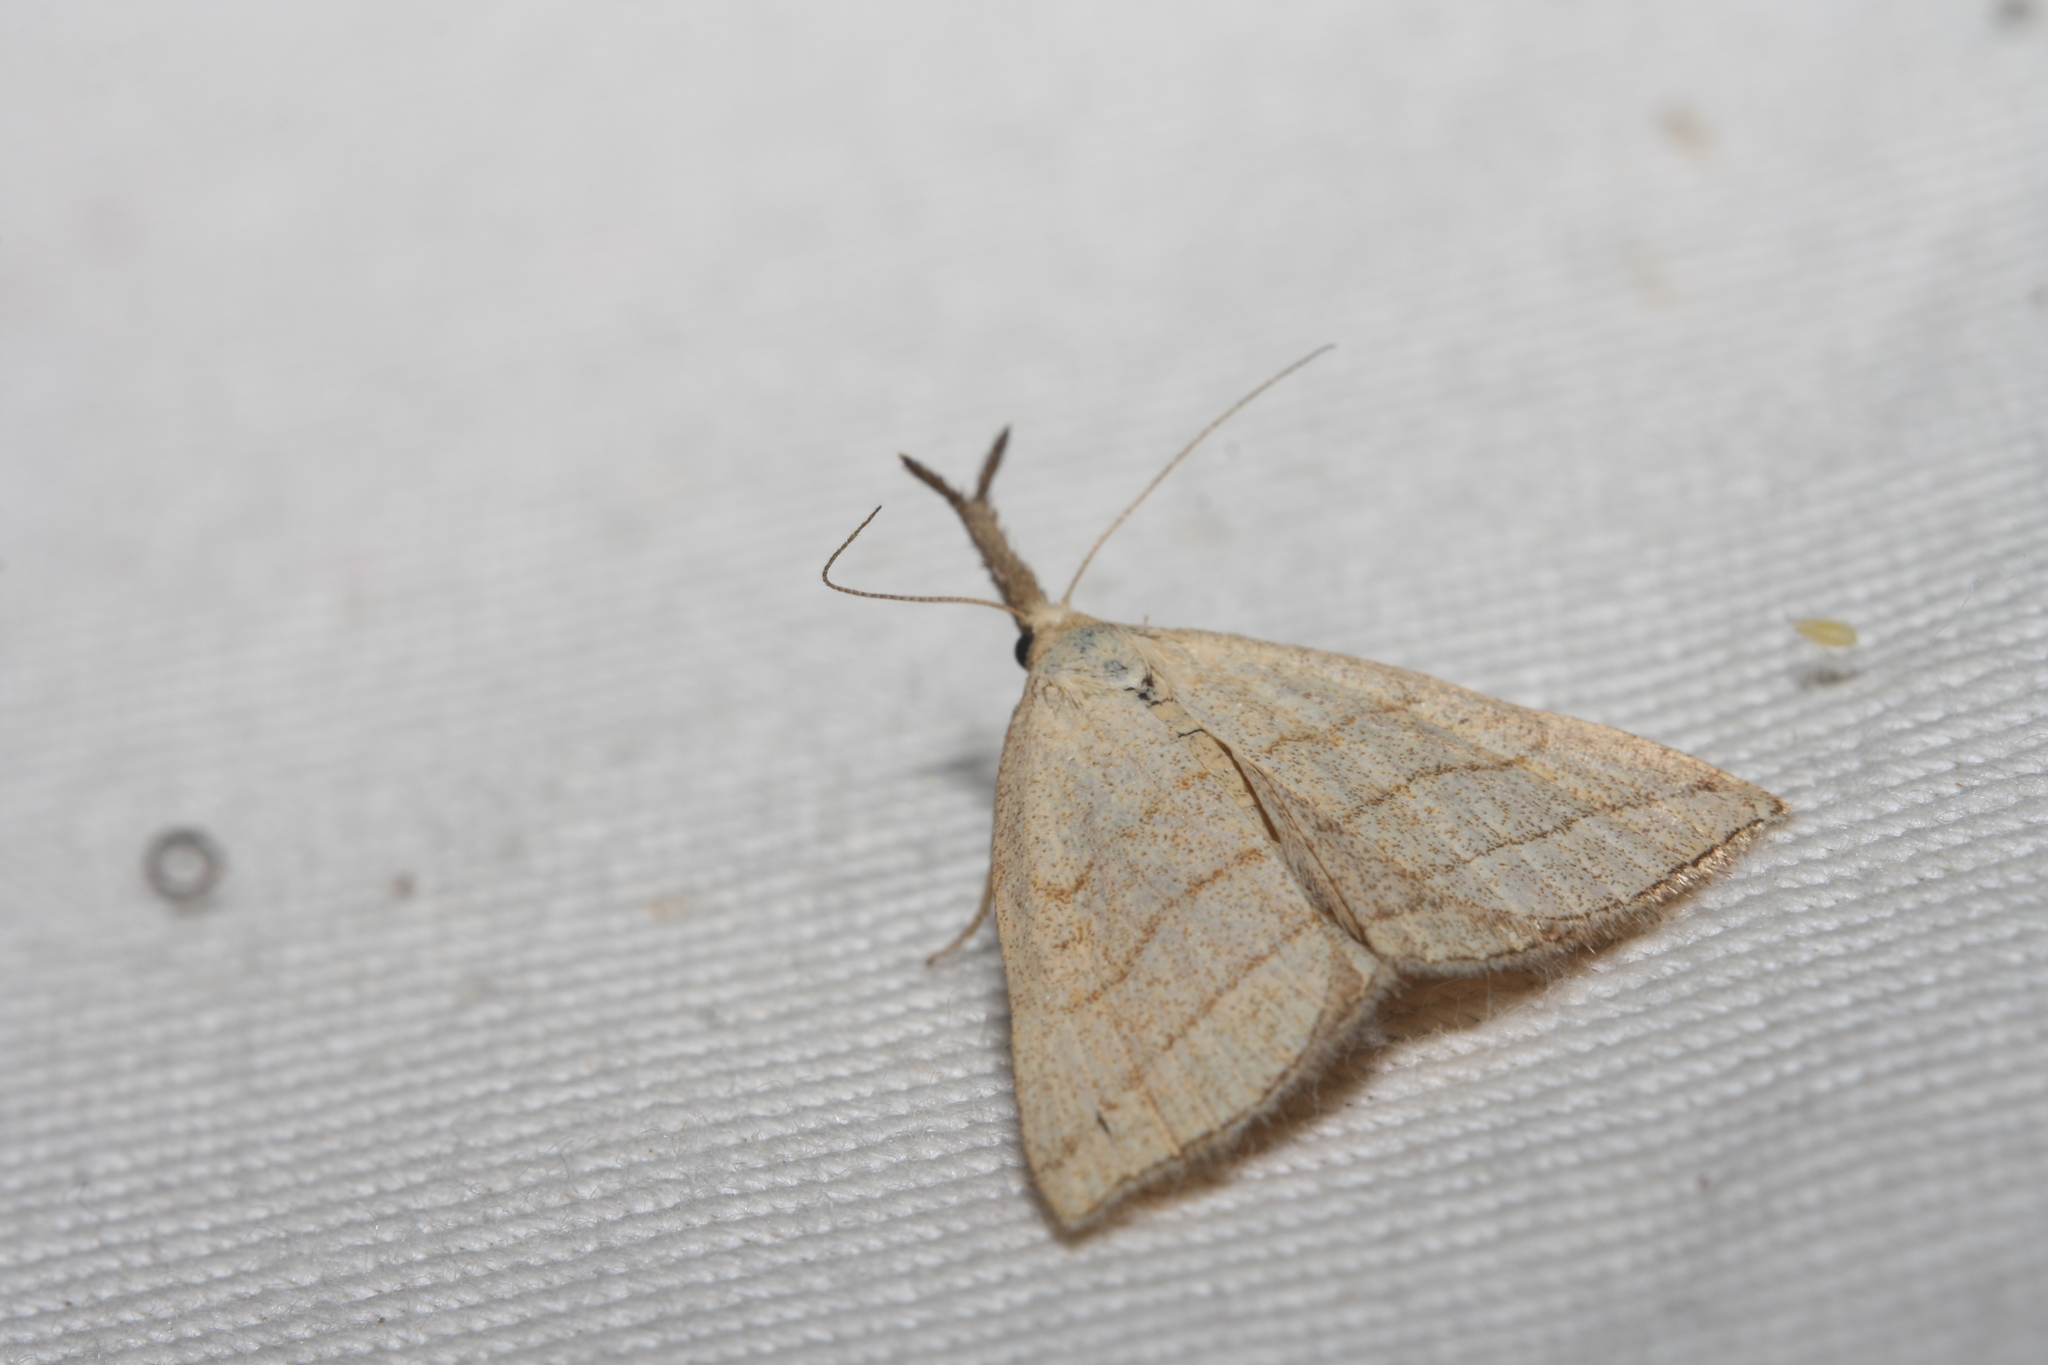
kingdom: Animalia
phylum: Arthropoda
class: Insecta
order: Lepidoptera
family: Erebidae
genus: Polypogon
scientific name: Polypogon tentacularia
